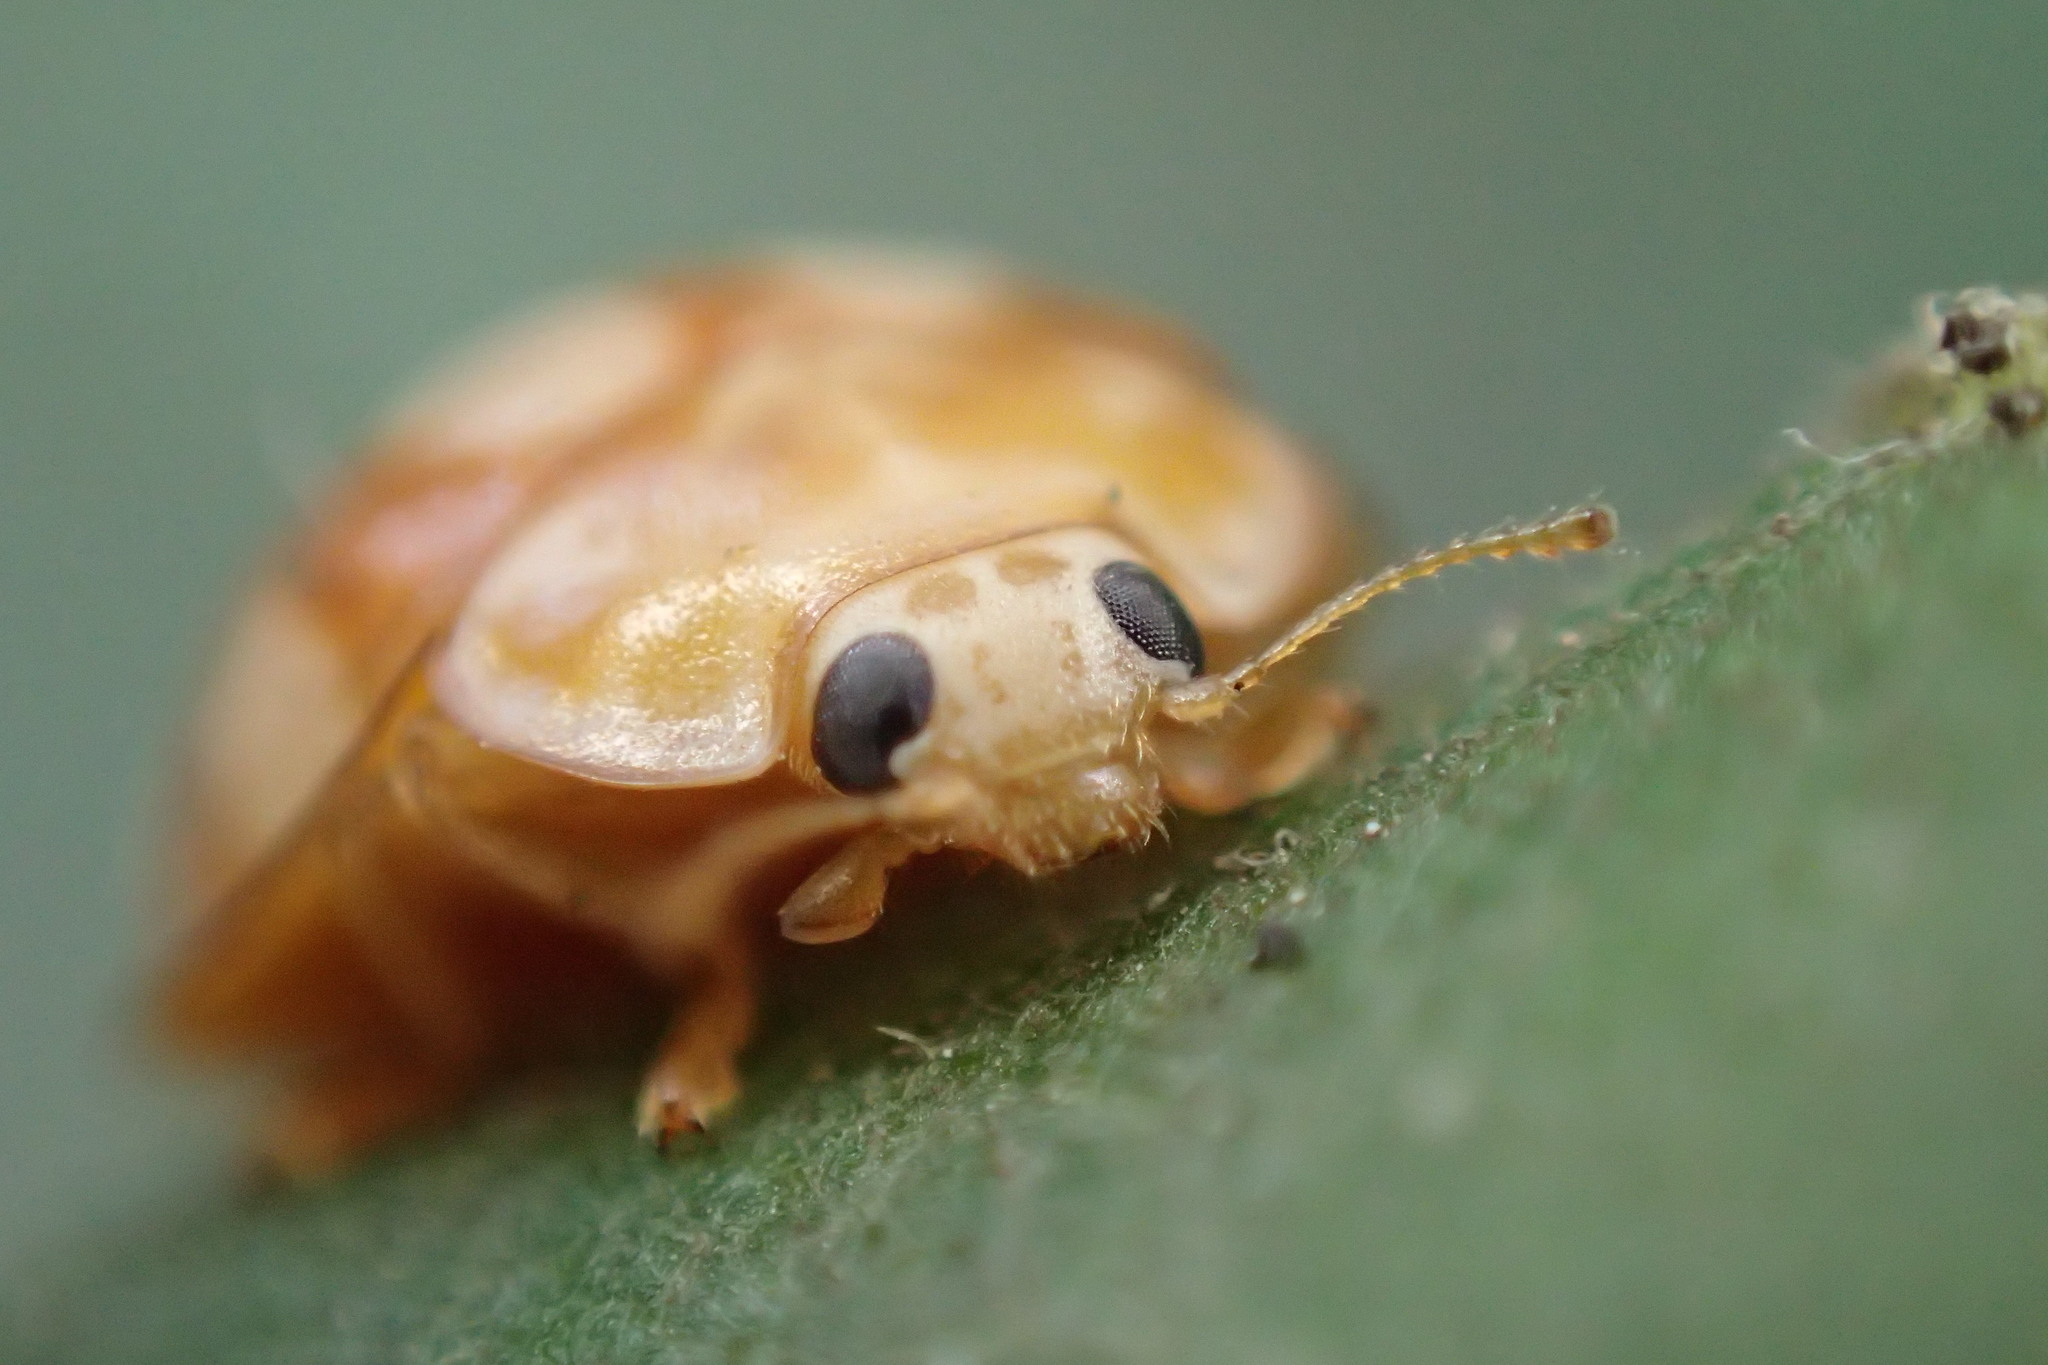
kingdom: Animalia
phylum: Arthropoda
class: Insecta
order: Coleoptera
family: Coccinellidae
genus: Calvia
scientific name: Calvia decemguttata
